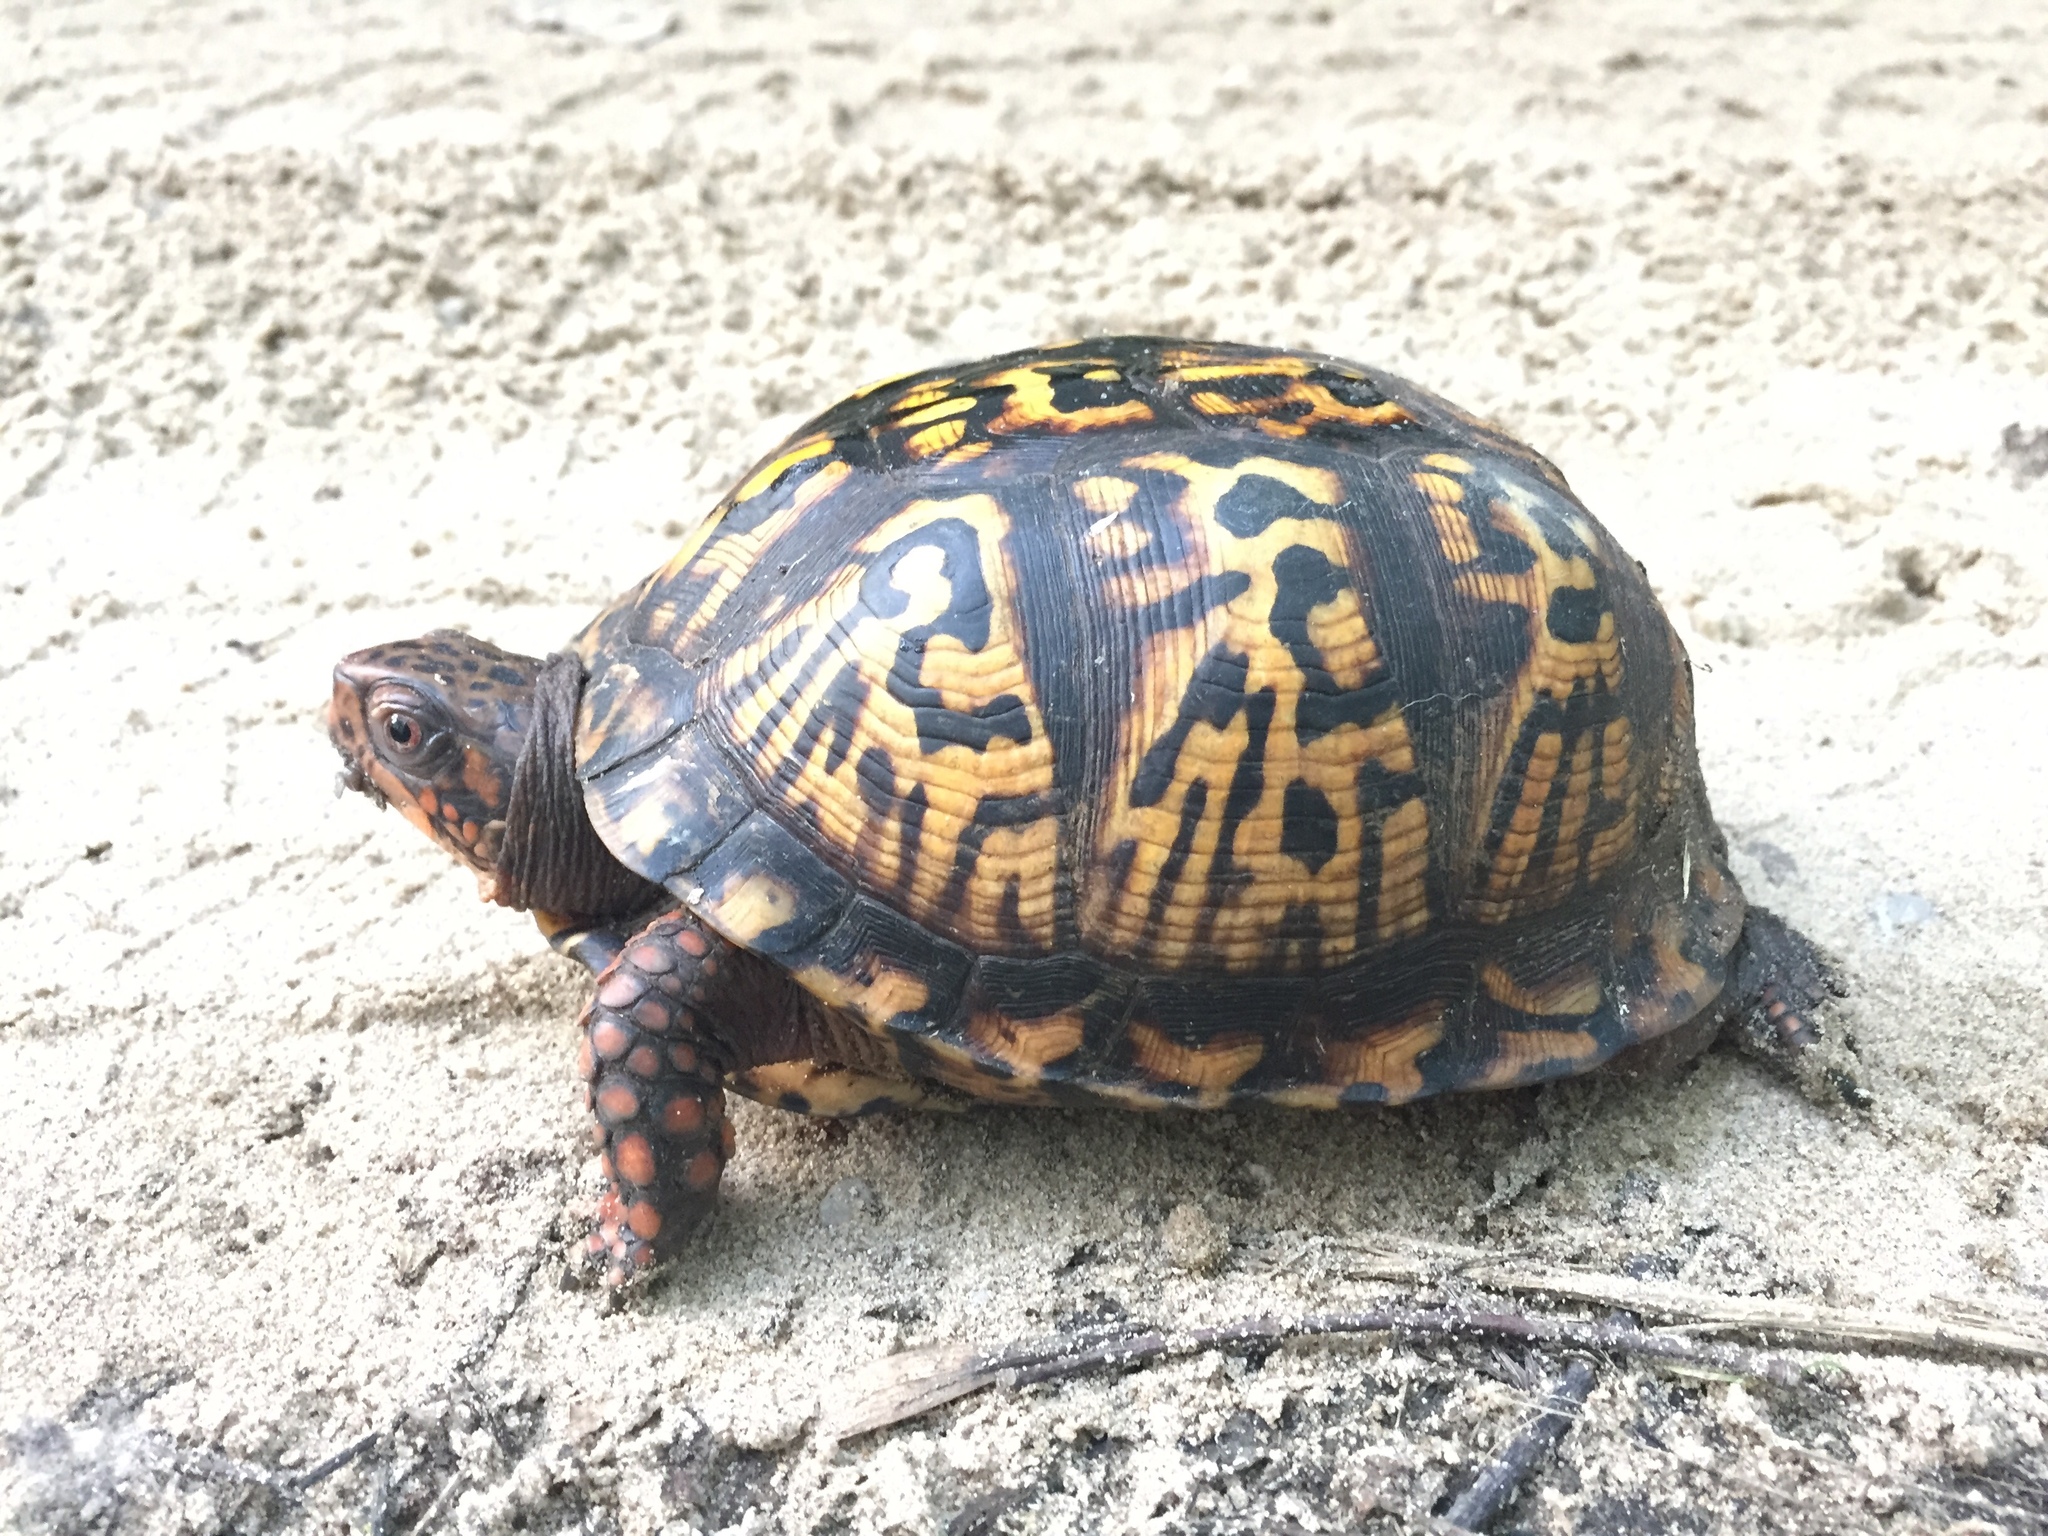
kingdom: Animalia
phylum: Chordata
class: Testudines
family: Emydidae
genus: Terrapene
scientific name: Terrapene carolina
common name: Common box turtle
